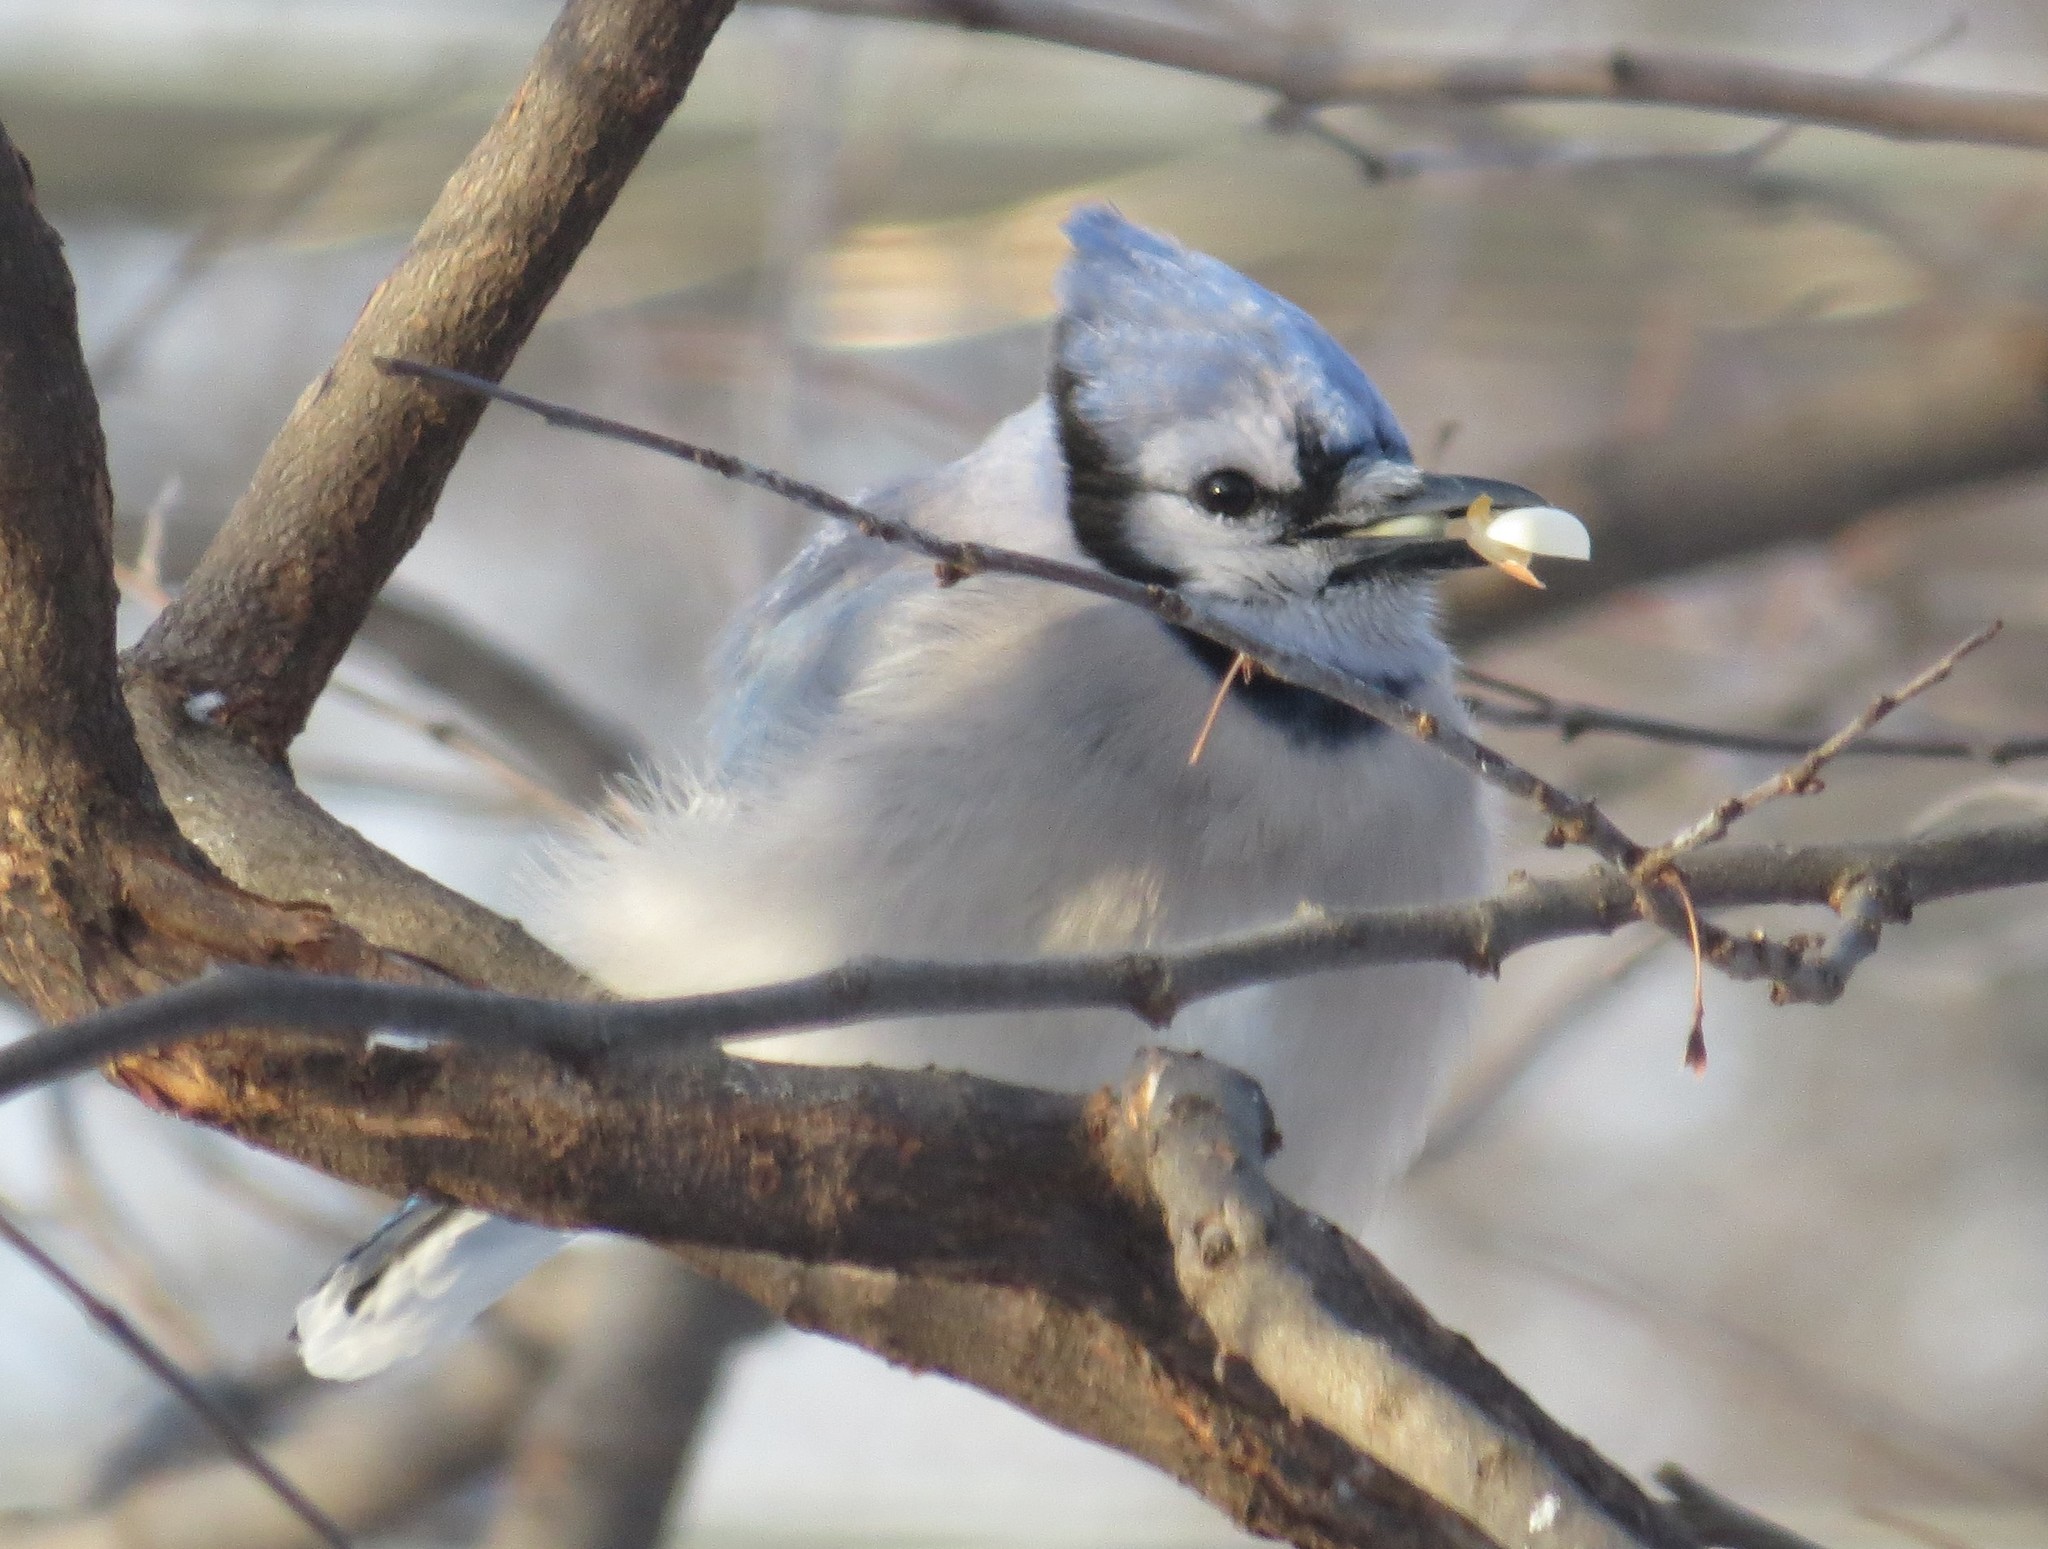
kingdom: Animalia
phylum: Chordata
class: Aves
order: Passeriformes
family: Corvidae
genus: Cyanocitta
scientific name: Cyanocitta cristata
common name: Blue jay
